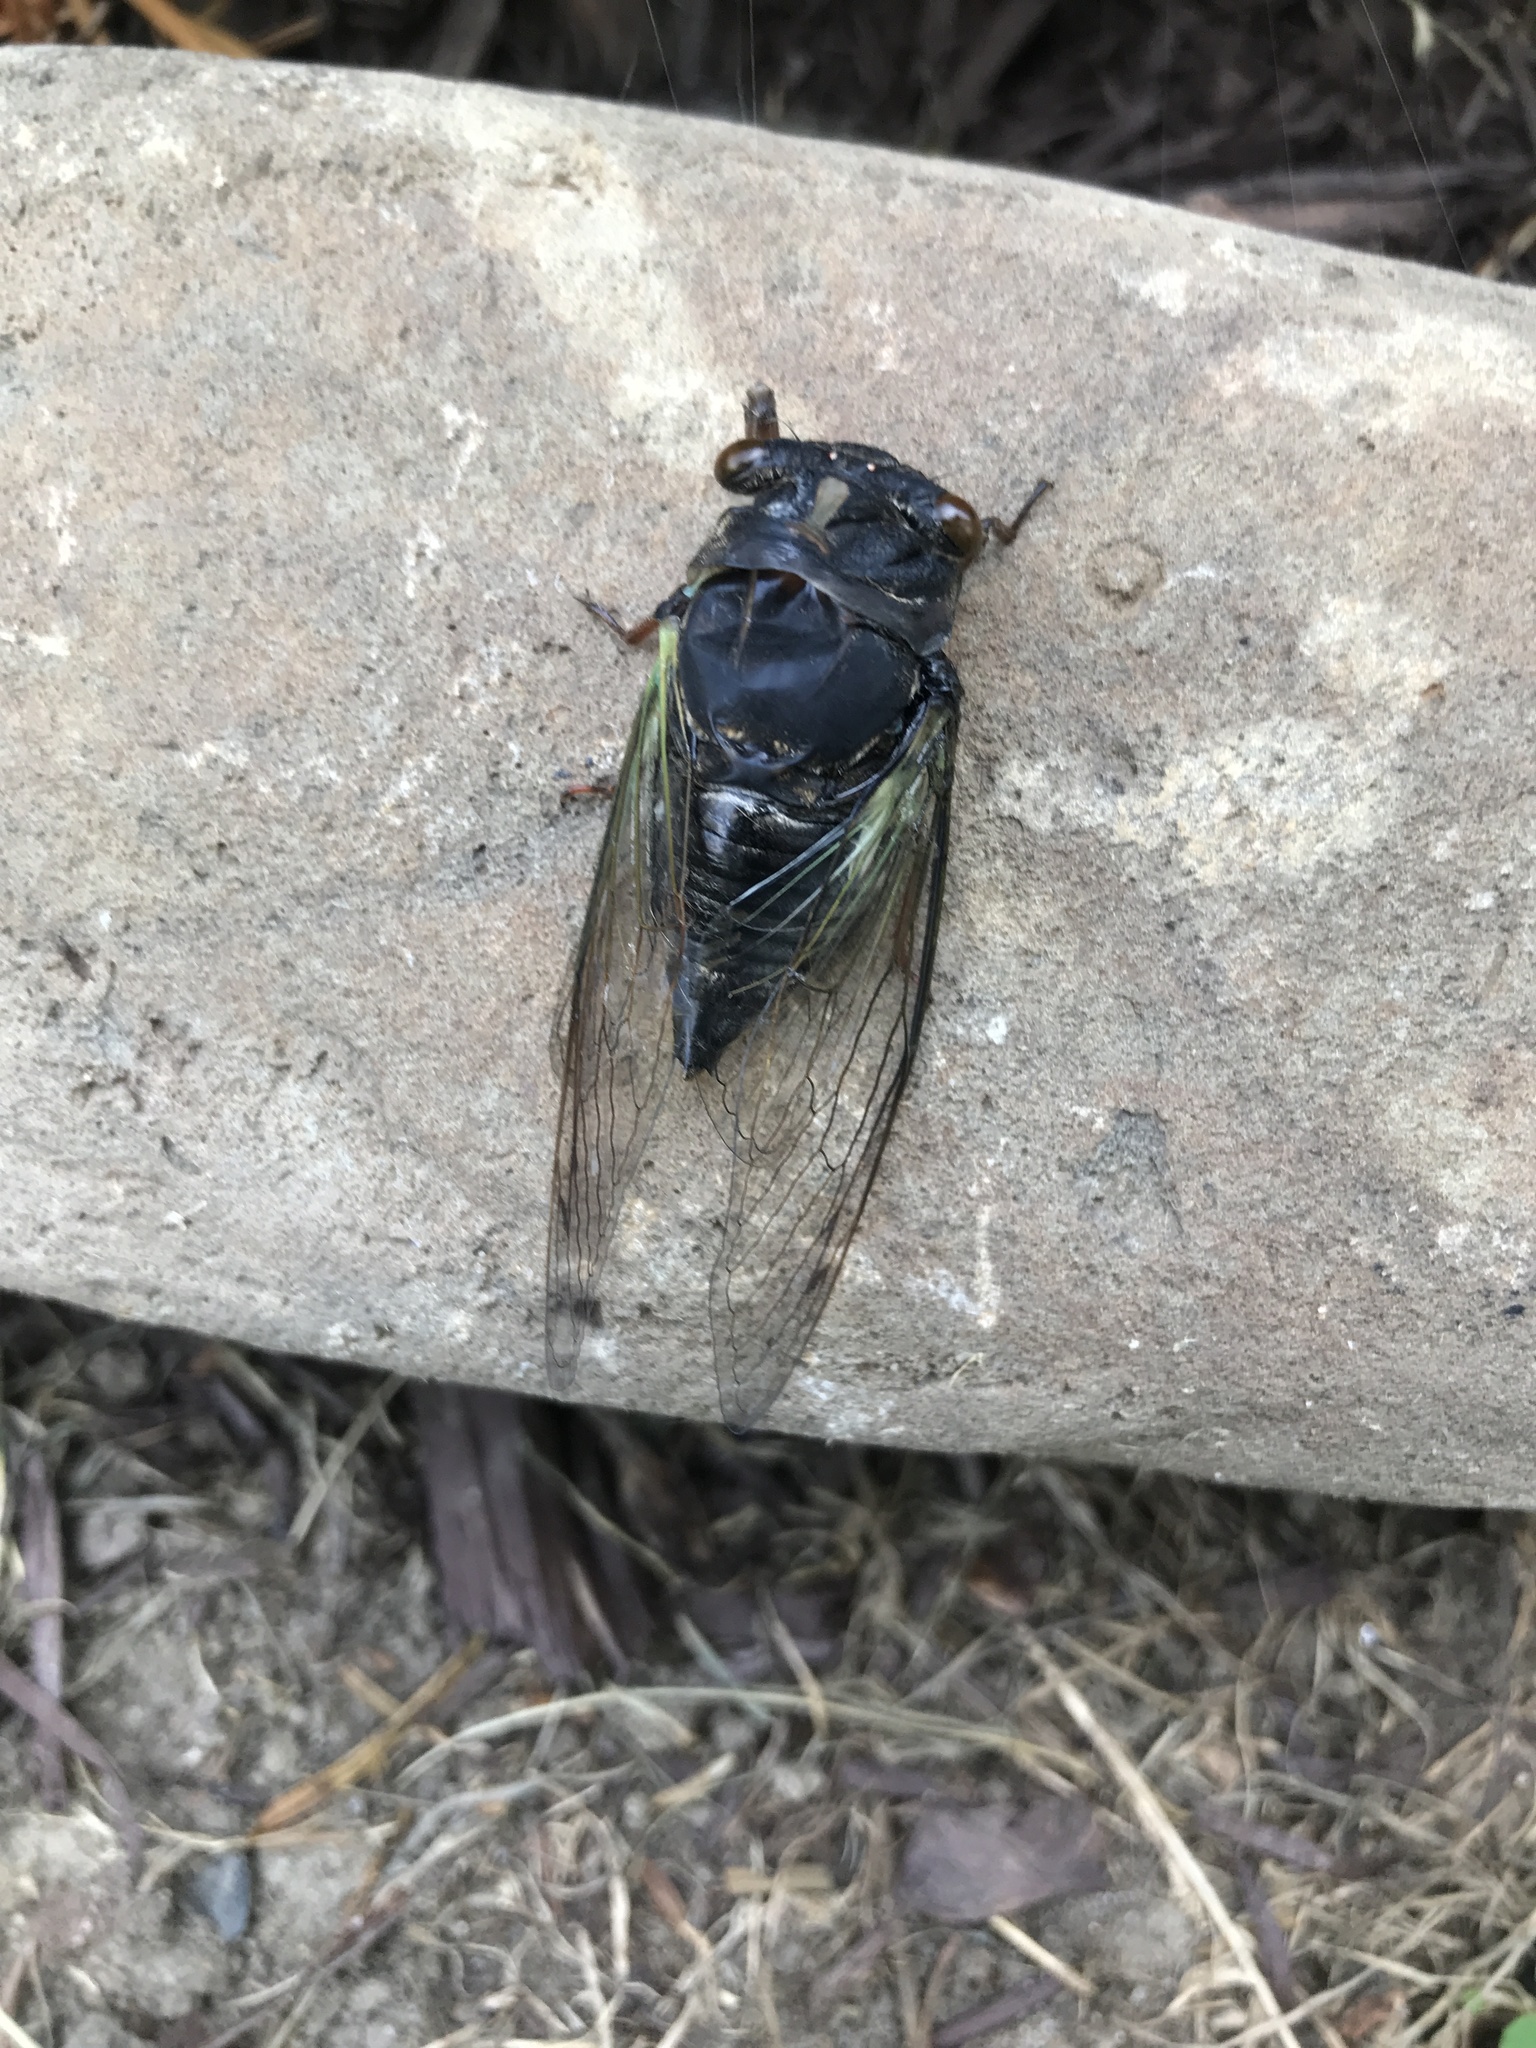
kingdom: Animalia
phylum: Arthropoda
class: Insecta
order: Hemiptera
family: Cicadidae
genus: Neotibicen
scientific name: Neotibicen lyricen
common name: Lyric cicada
